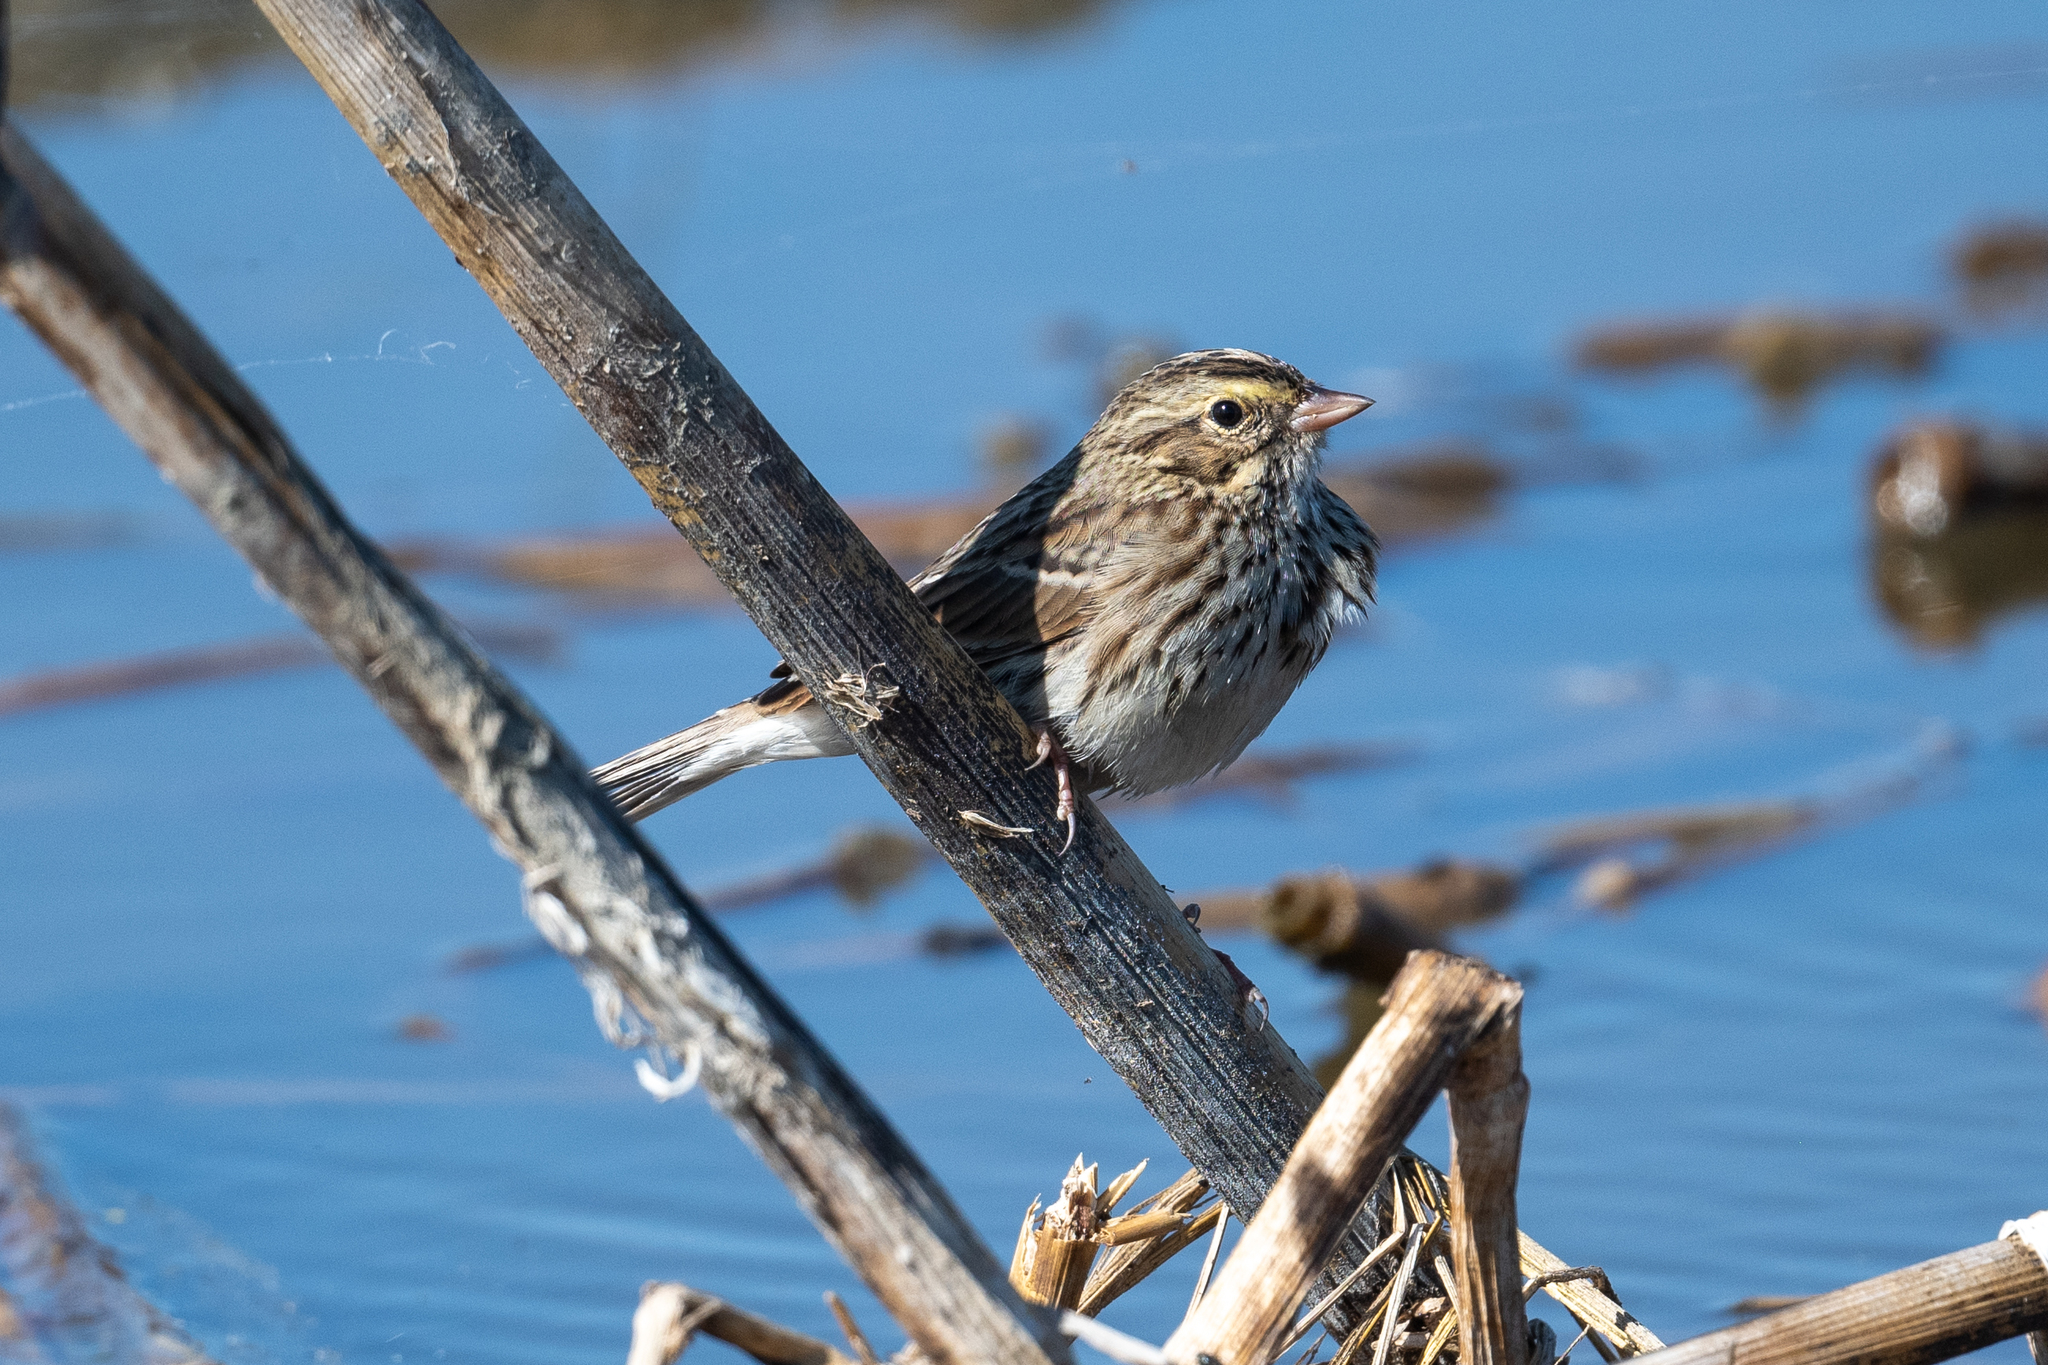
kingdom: Animalia
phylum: Chordata
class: Aves
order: Passeriformes
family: Passerellidae
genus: Passerculus
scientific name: Passerculus sandwichensis
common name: Savannah sparrow
